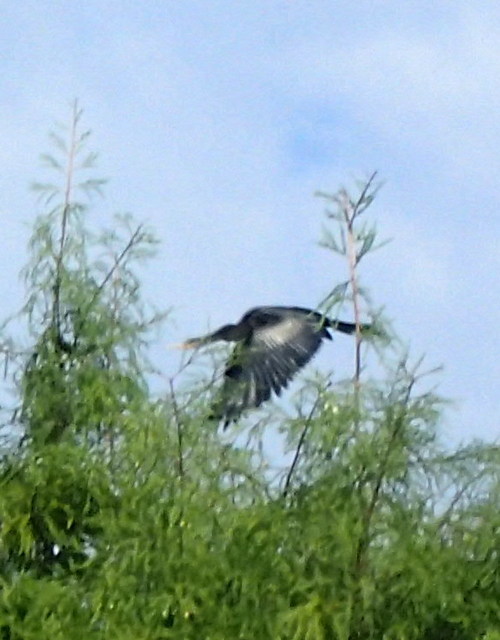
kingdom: Animalia
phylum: Chordata
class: Aves
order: Suliformes
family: Anhingidae
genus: Anhinga
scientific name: Anhinga anhinga
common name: Anhinga
